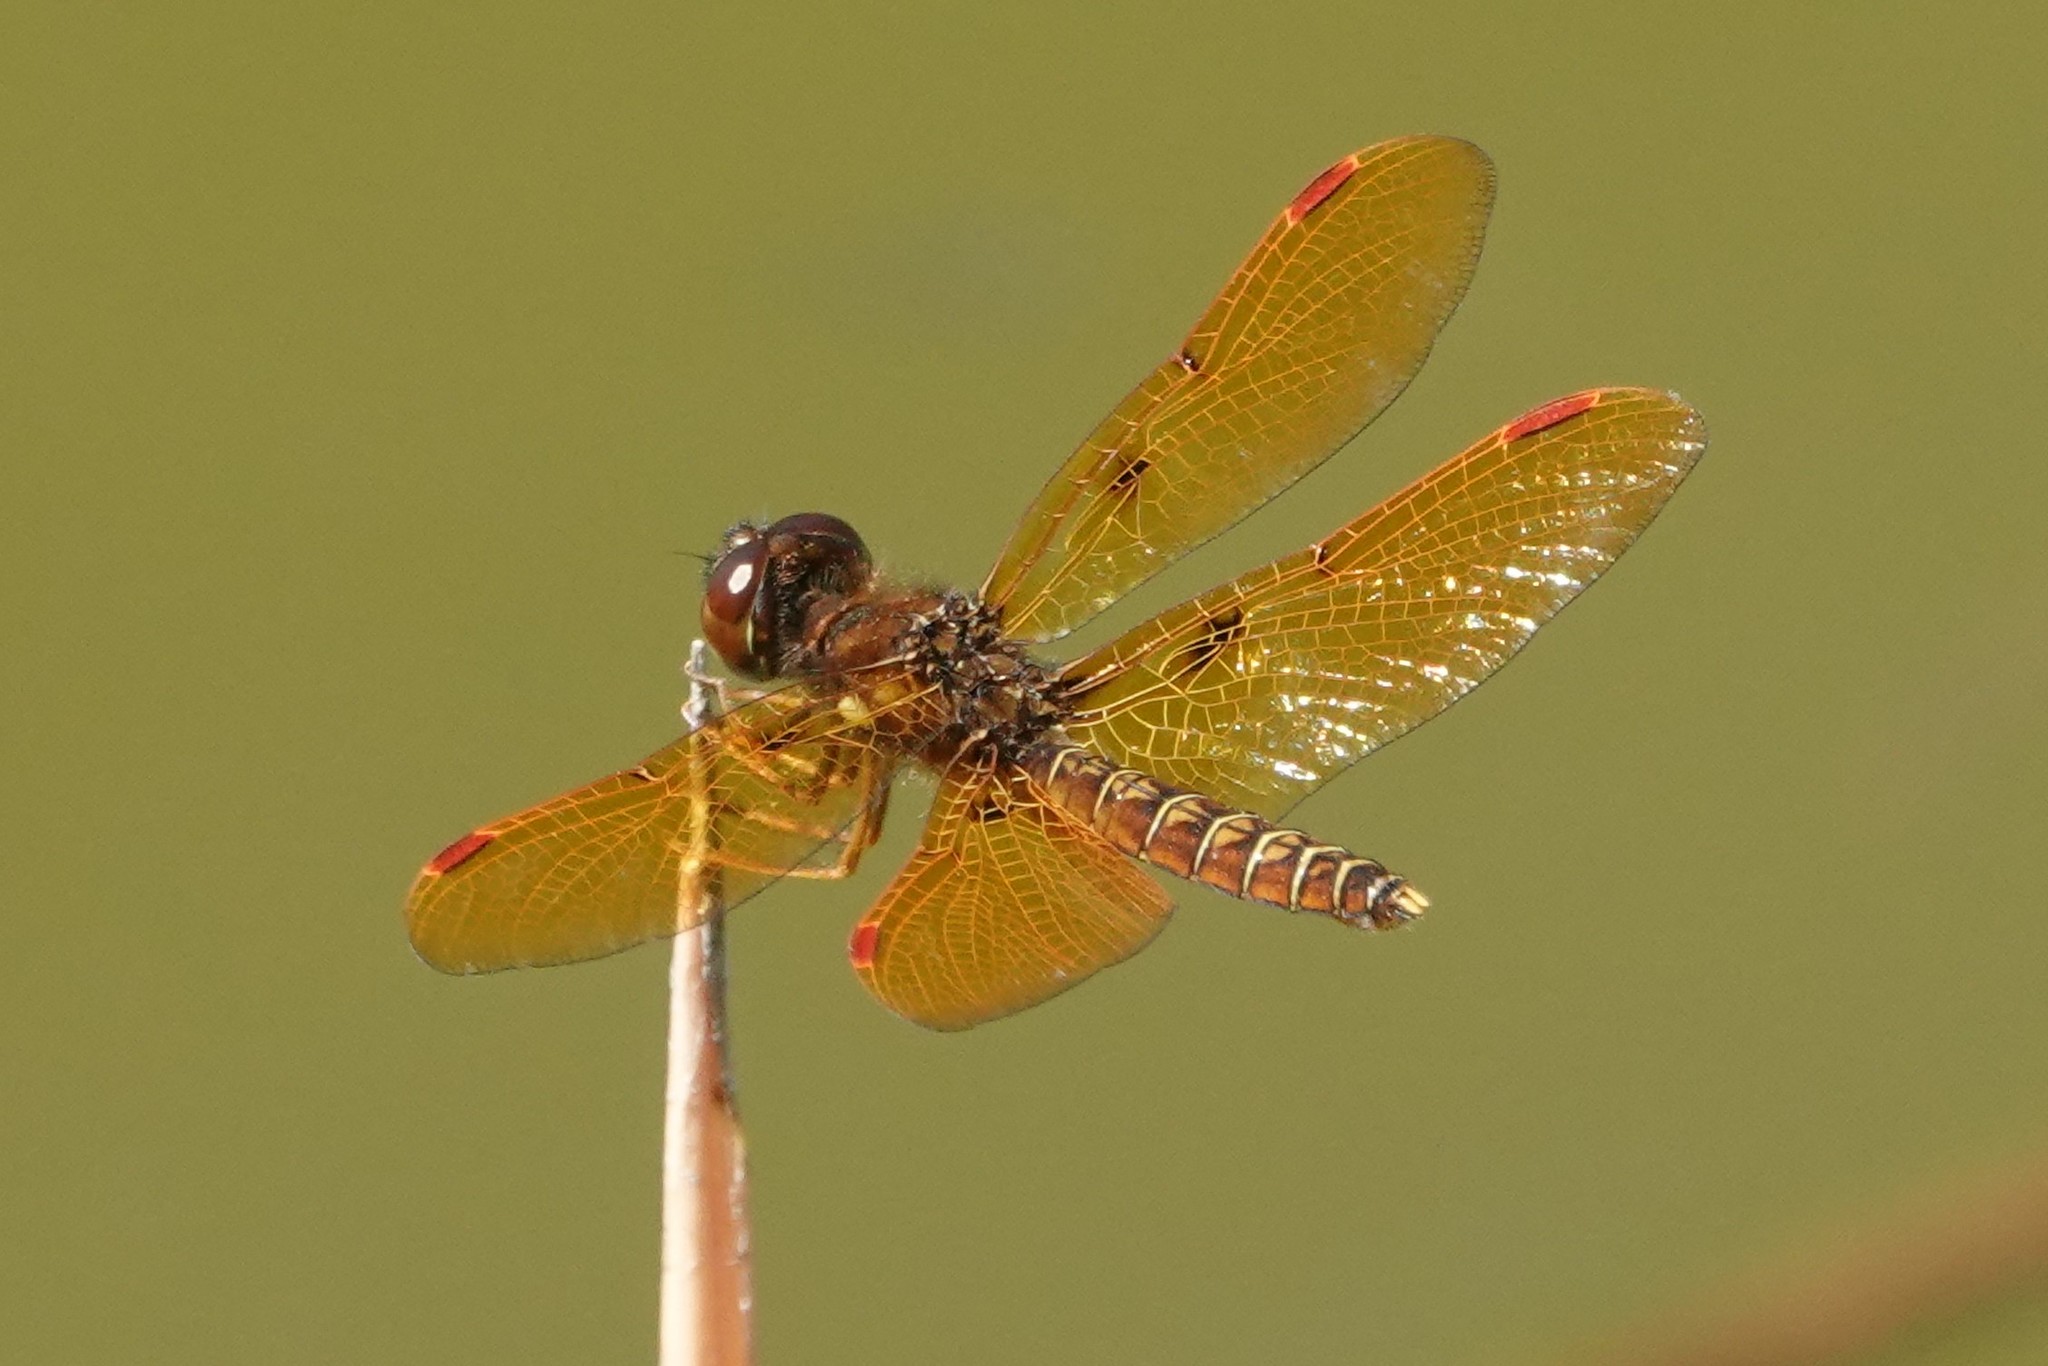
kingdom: Animalia
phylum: Arthropoda
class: Insecta
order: Odonata
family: Libellulidae
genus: Perithemis
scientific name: Perithemis tenera
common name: Eastern amberwing
